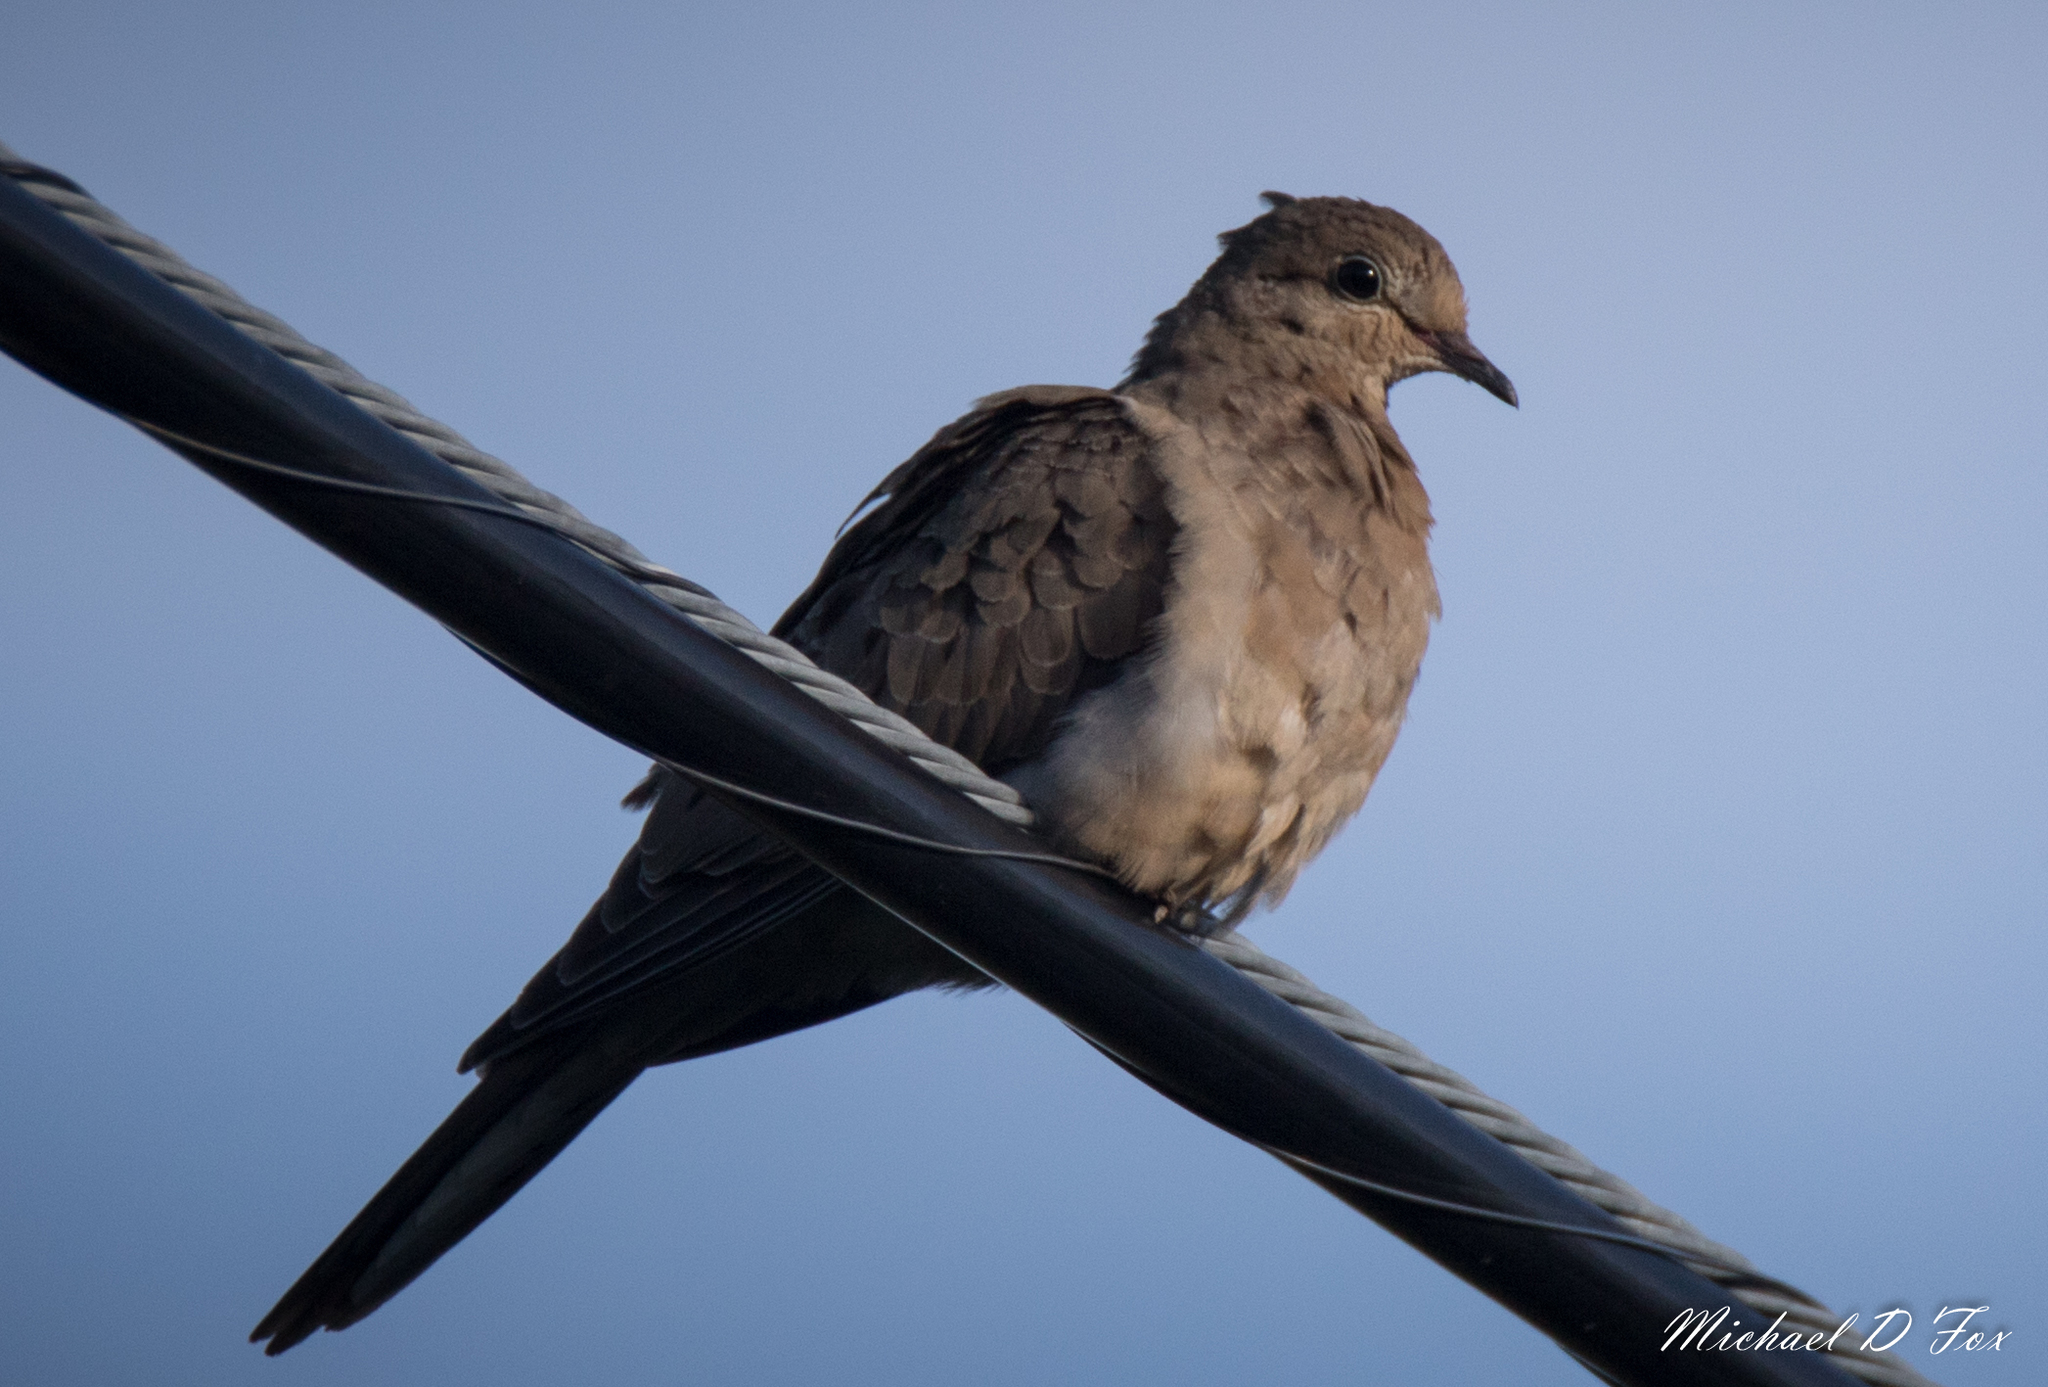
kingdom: Animalia
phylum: Chordata
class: Aves
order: Columbiformes
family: Columbidae
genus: Zenaida
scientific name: Zenaida macroura
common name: Mourning dove
